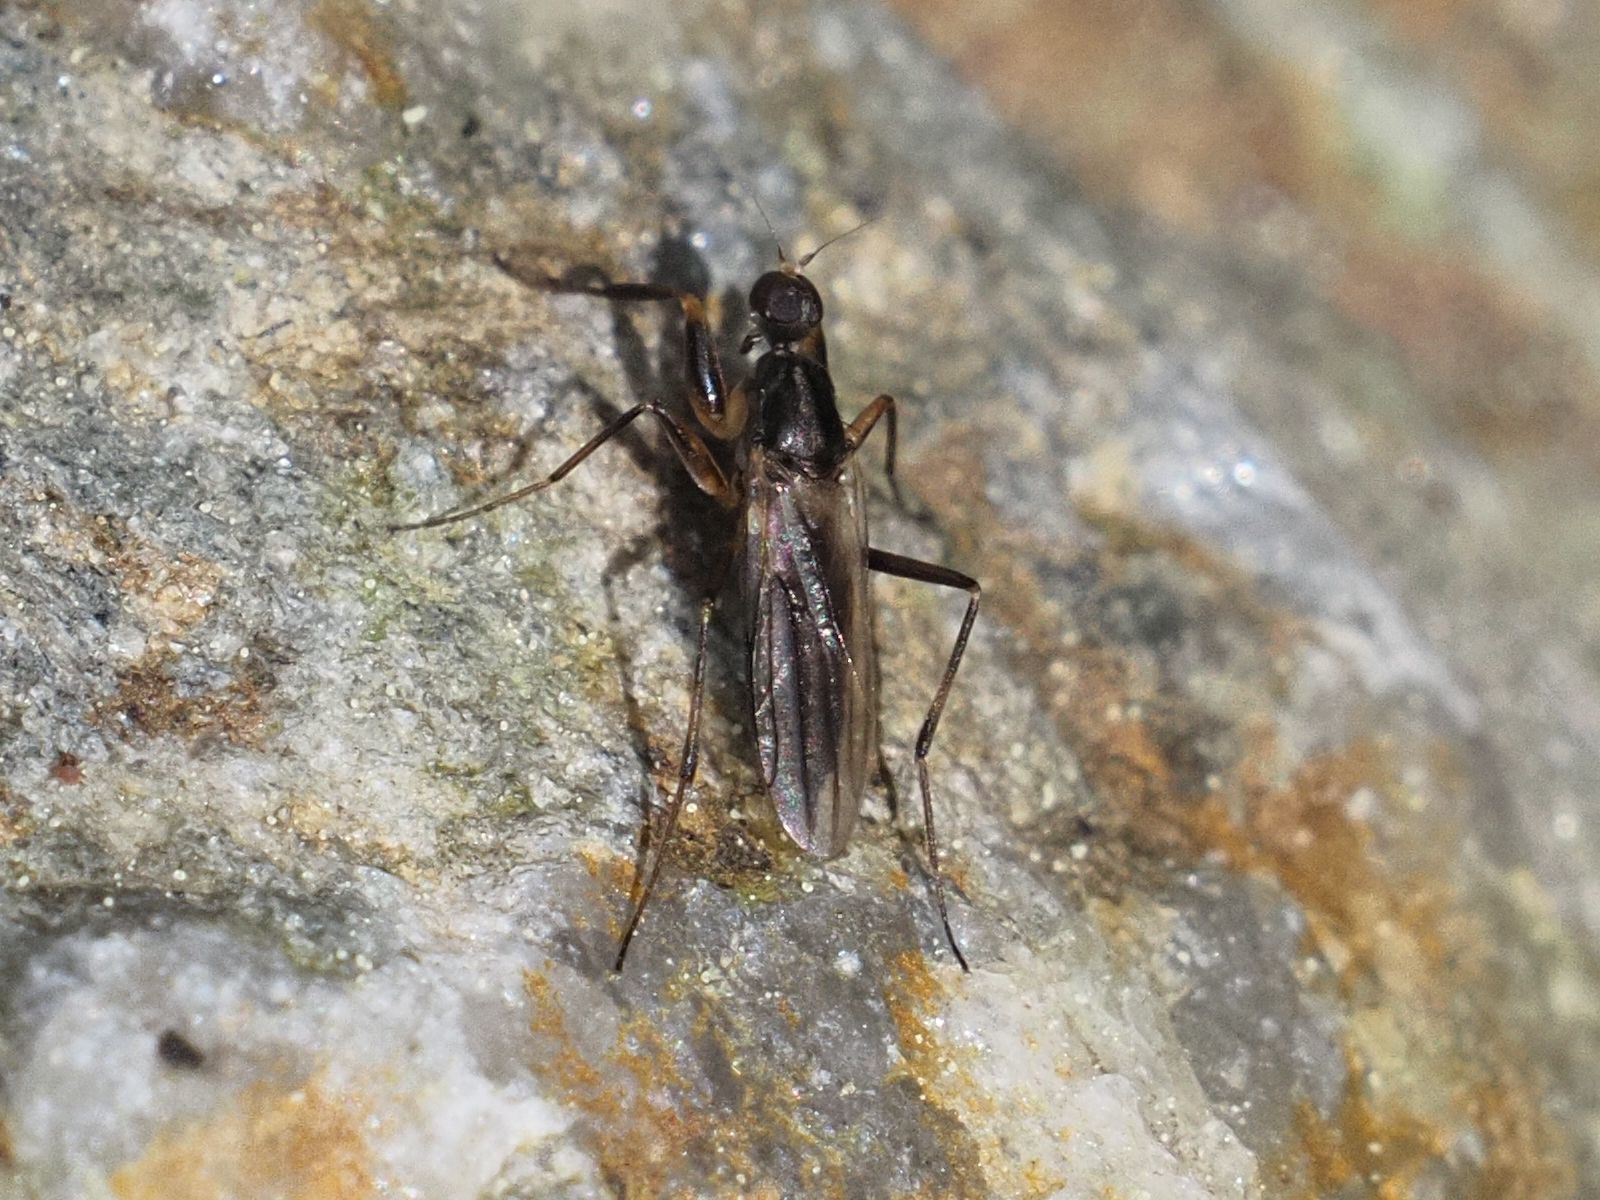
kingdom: Animalia
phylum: Arthropoda
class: Insecta
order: Diptera
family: Hybotidae
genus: Tachypeza
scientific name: Tachypeza nubila
